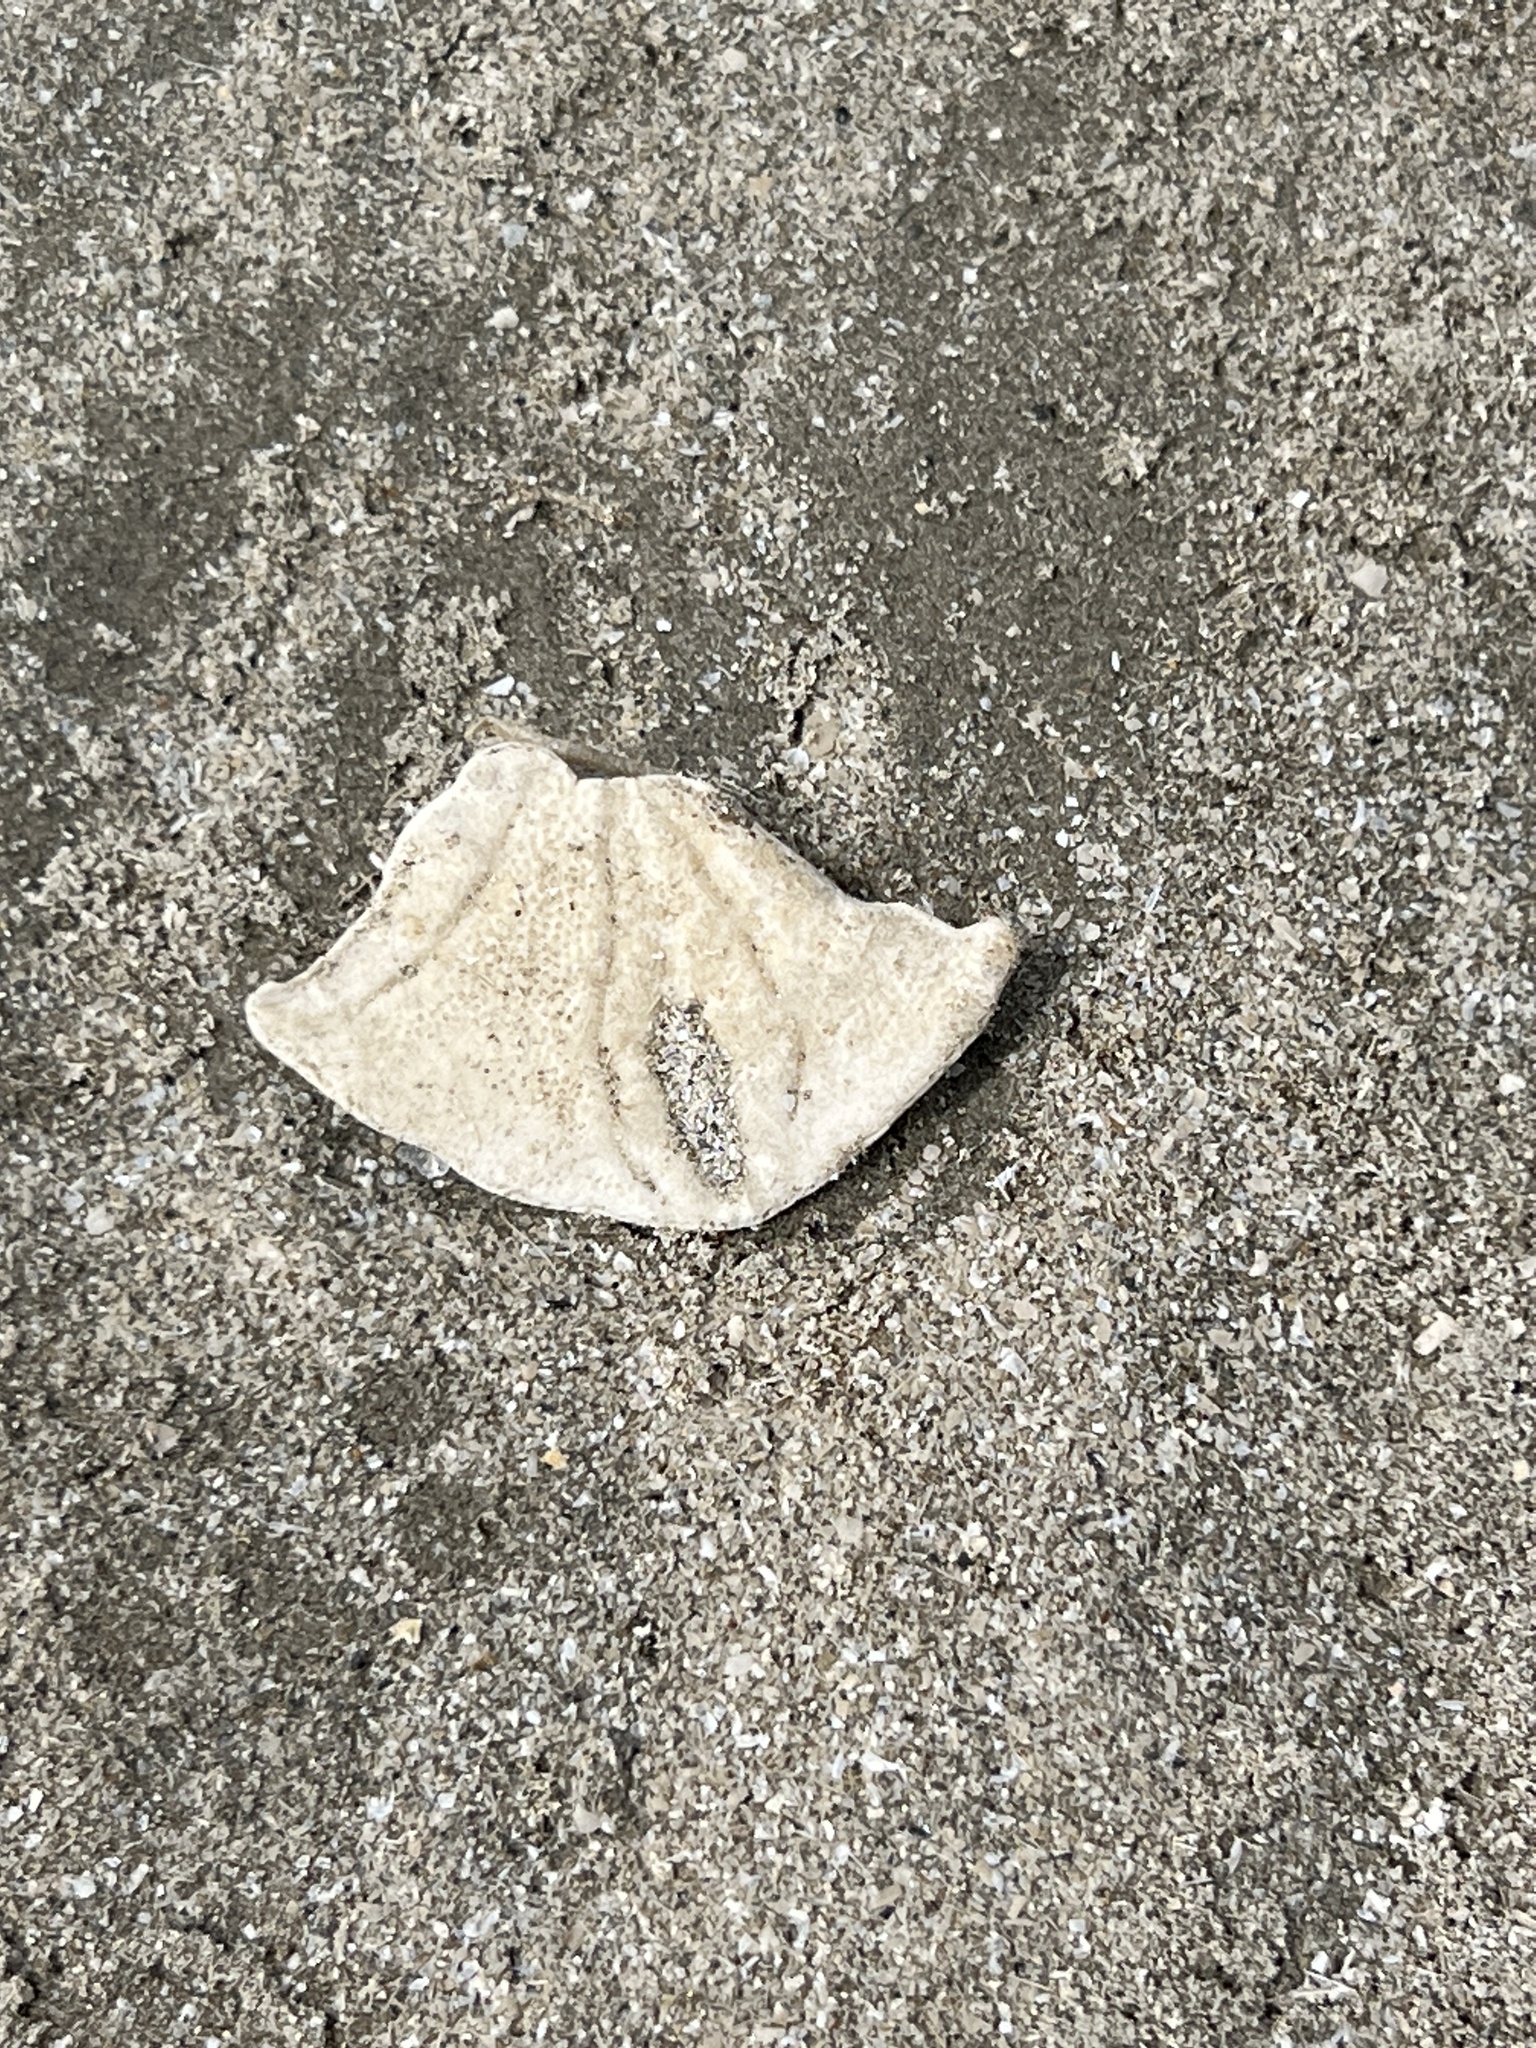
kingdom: Animalia
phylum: Echinodermata
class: Echinoidea
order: Echinolampadacea
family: Mellitidae
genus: Mellita
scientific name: Mellita quinquiesperforata
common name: Sand dollar
